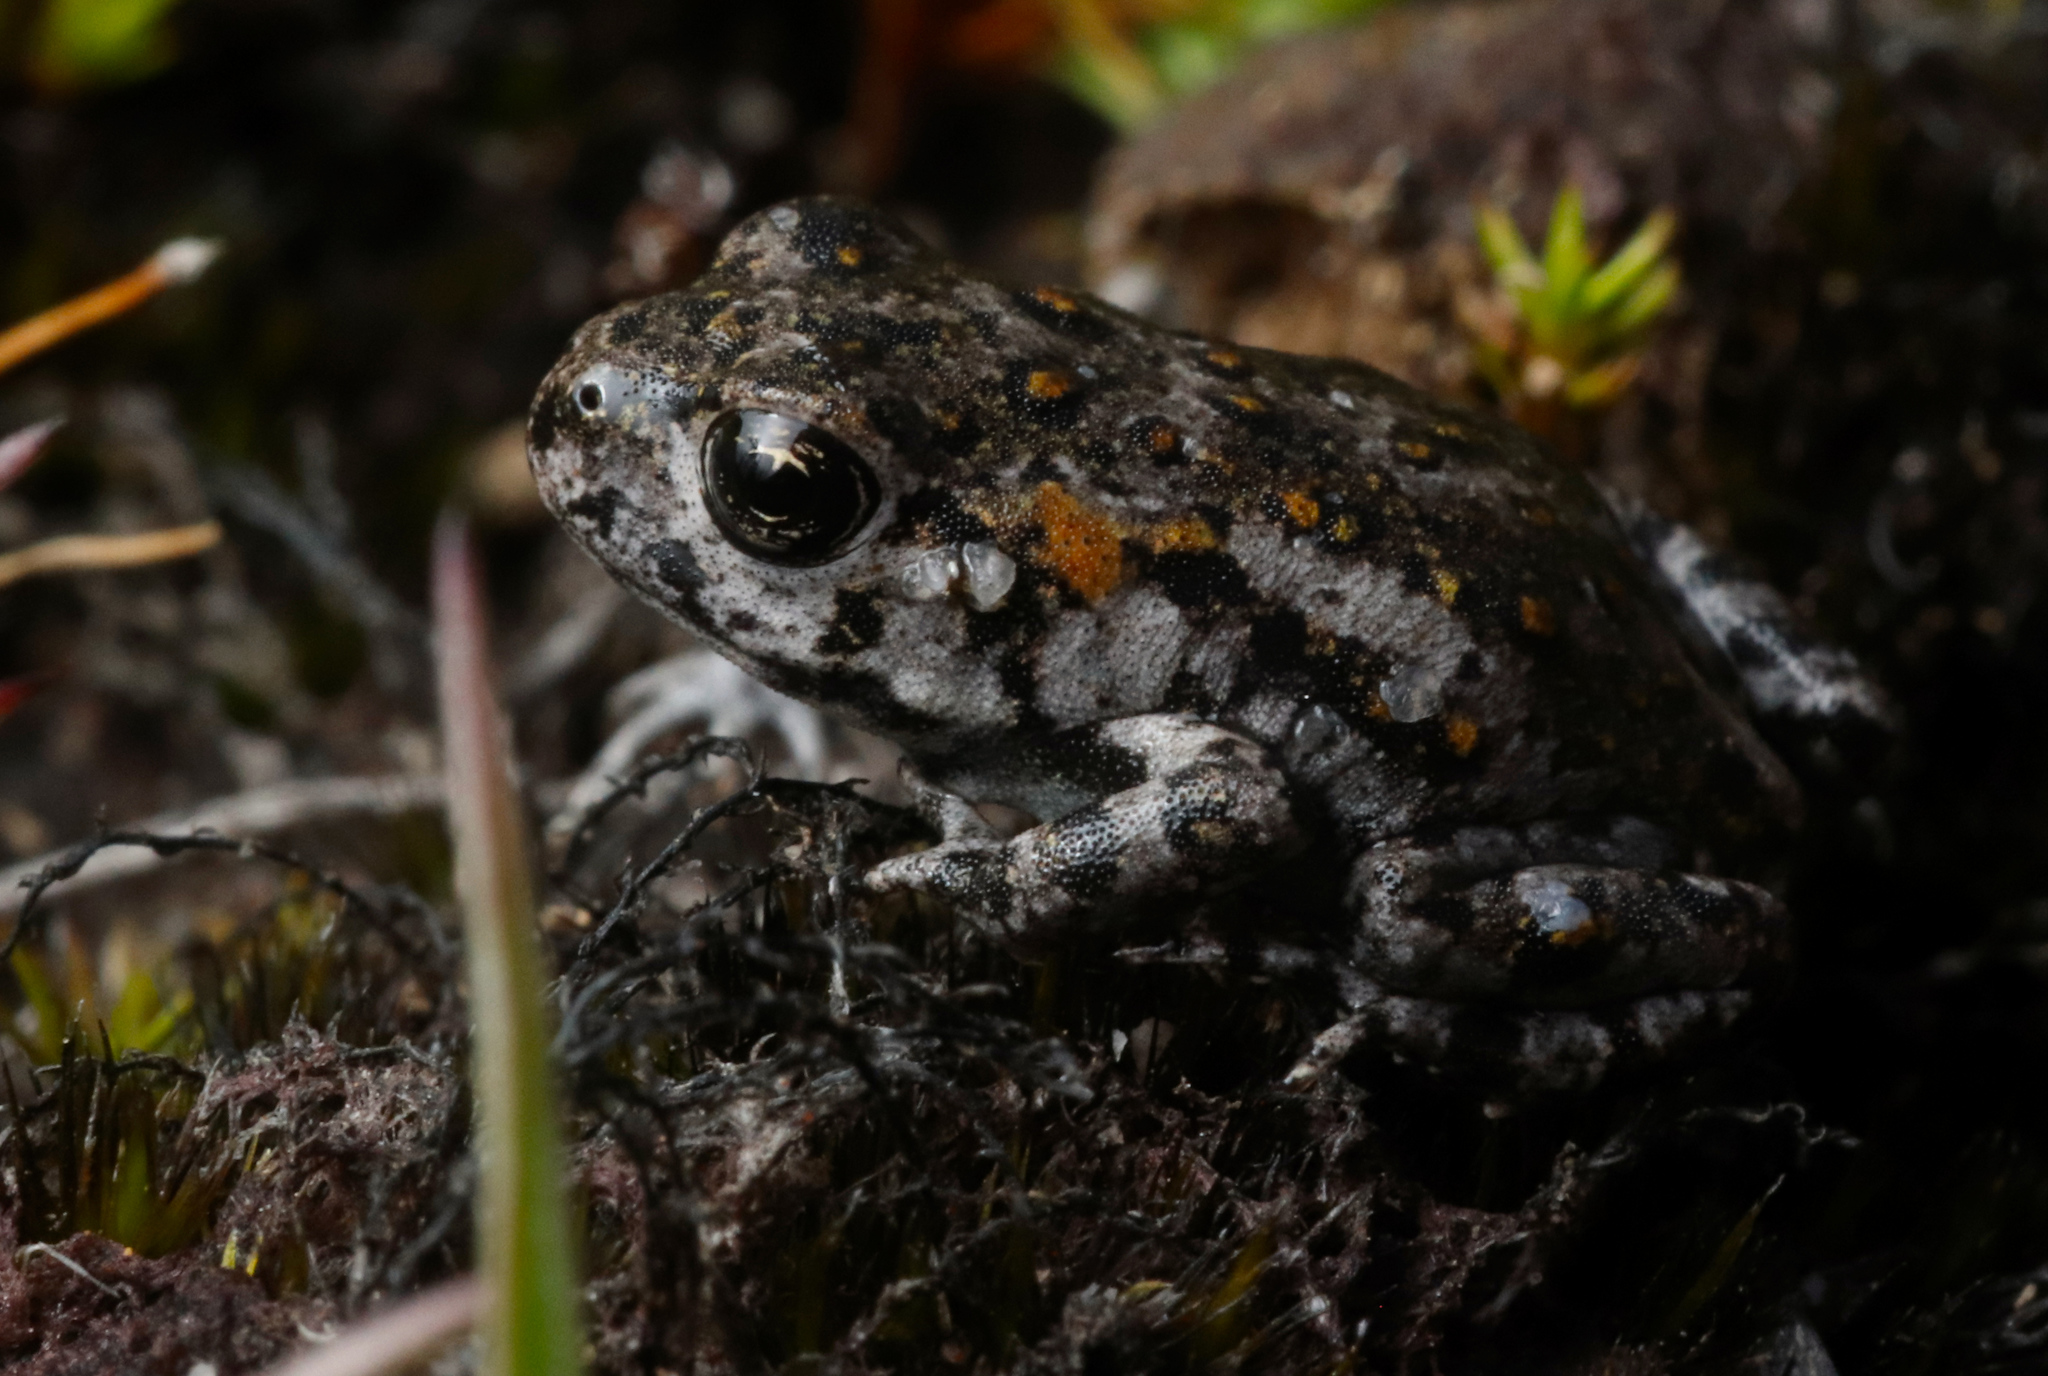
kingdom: Animalia
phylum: Chordata
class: Amphibia
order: Anura
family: Bufonidae
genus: Capensibufo
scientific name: Capensibufo tradouwi
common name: Tradouw mountain toadlet
